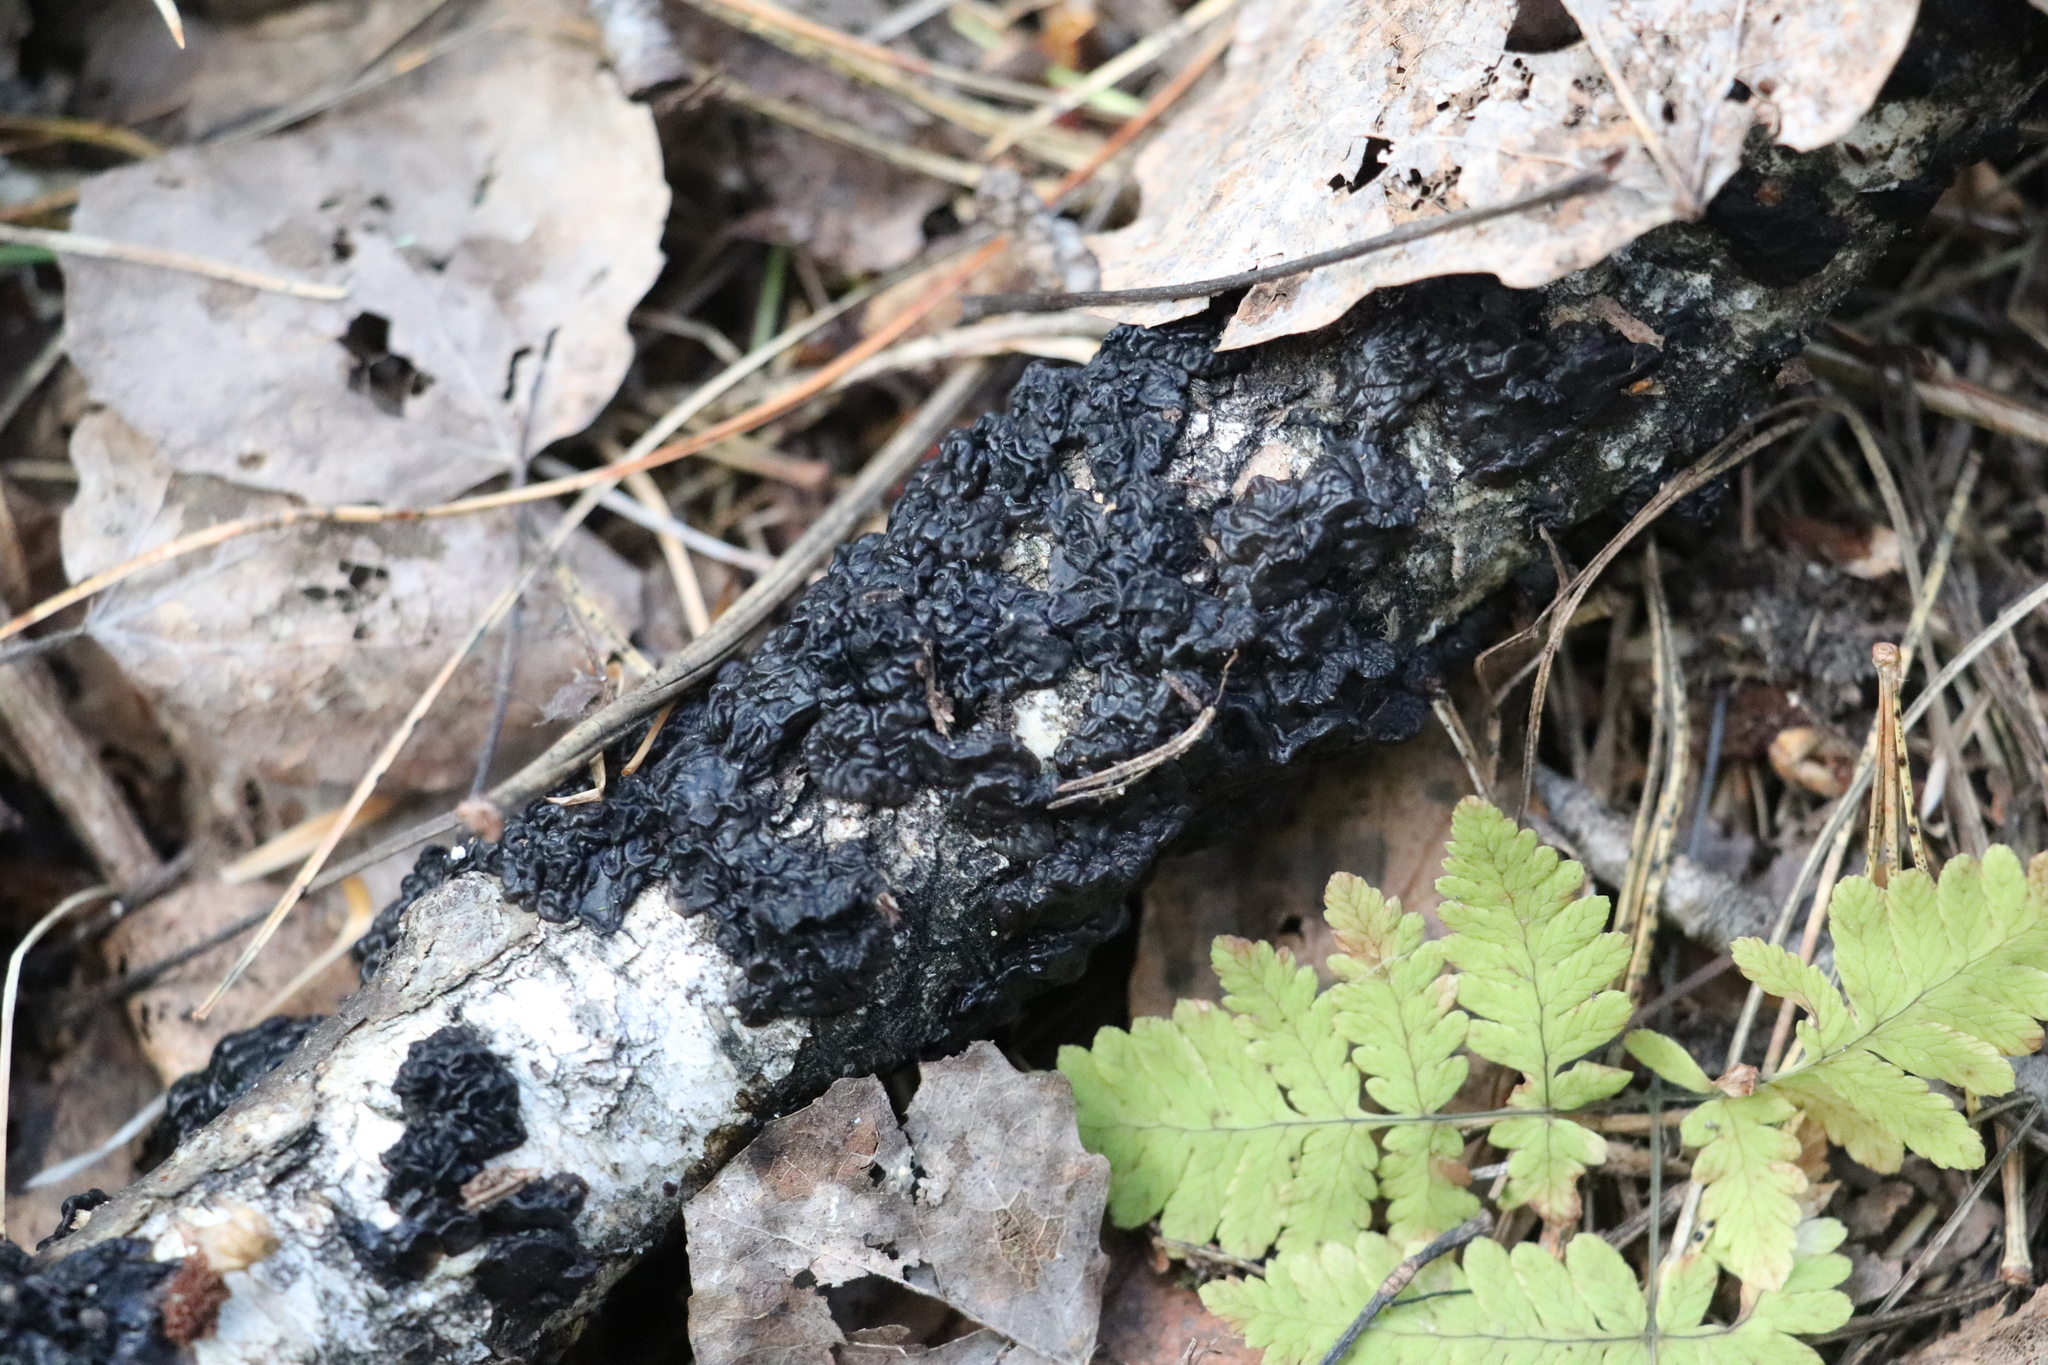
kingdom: Fungi
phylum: Basidiomycota
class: Agaricomycetes
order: Auriculariales
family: Auriculariaceae
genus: Exidia
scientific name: Exidia glandulosa
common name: Witches' butter
